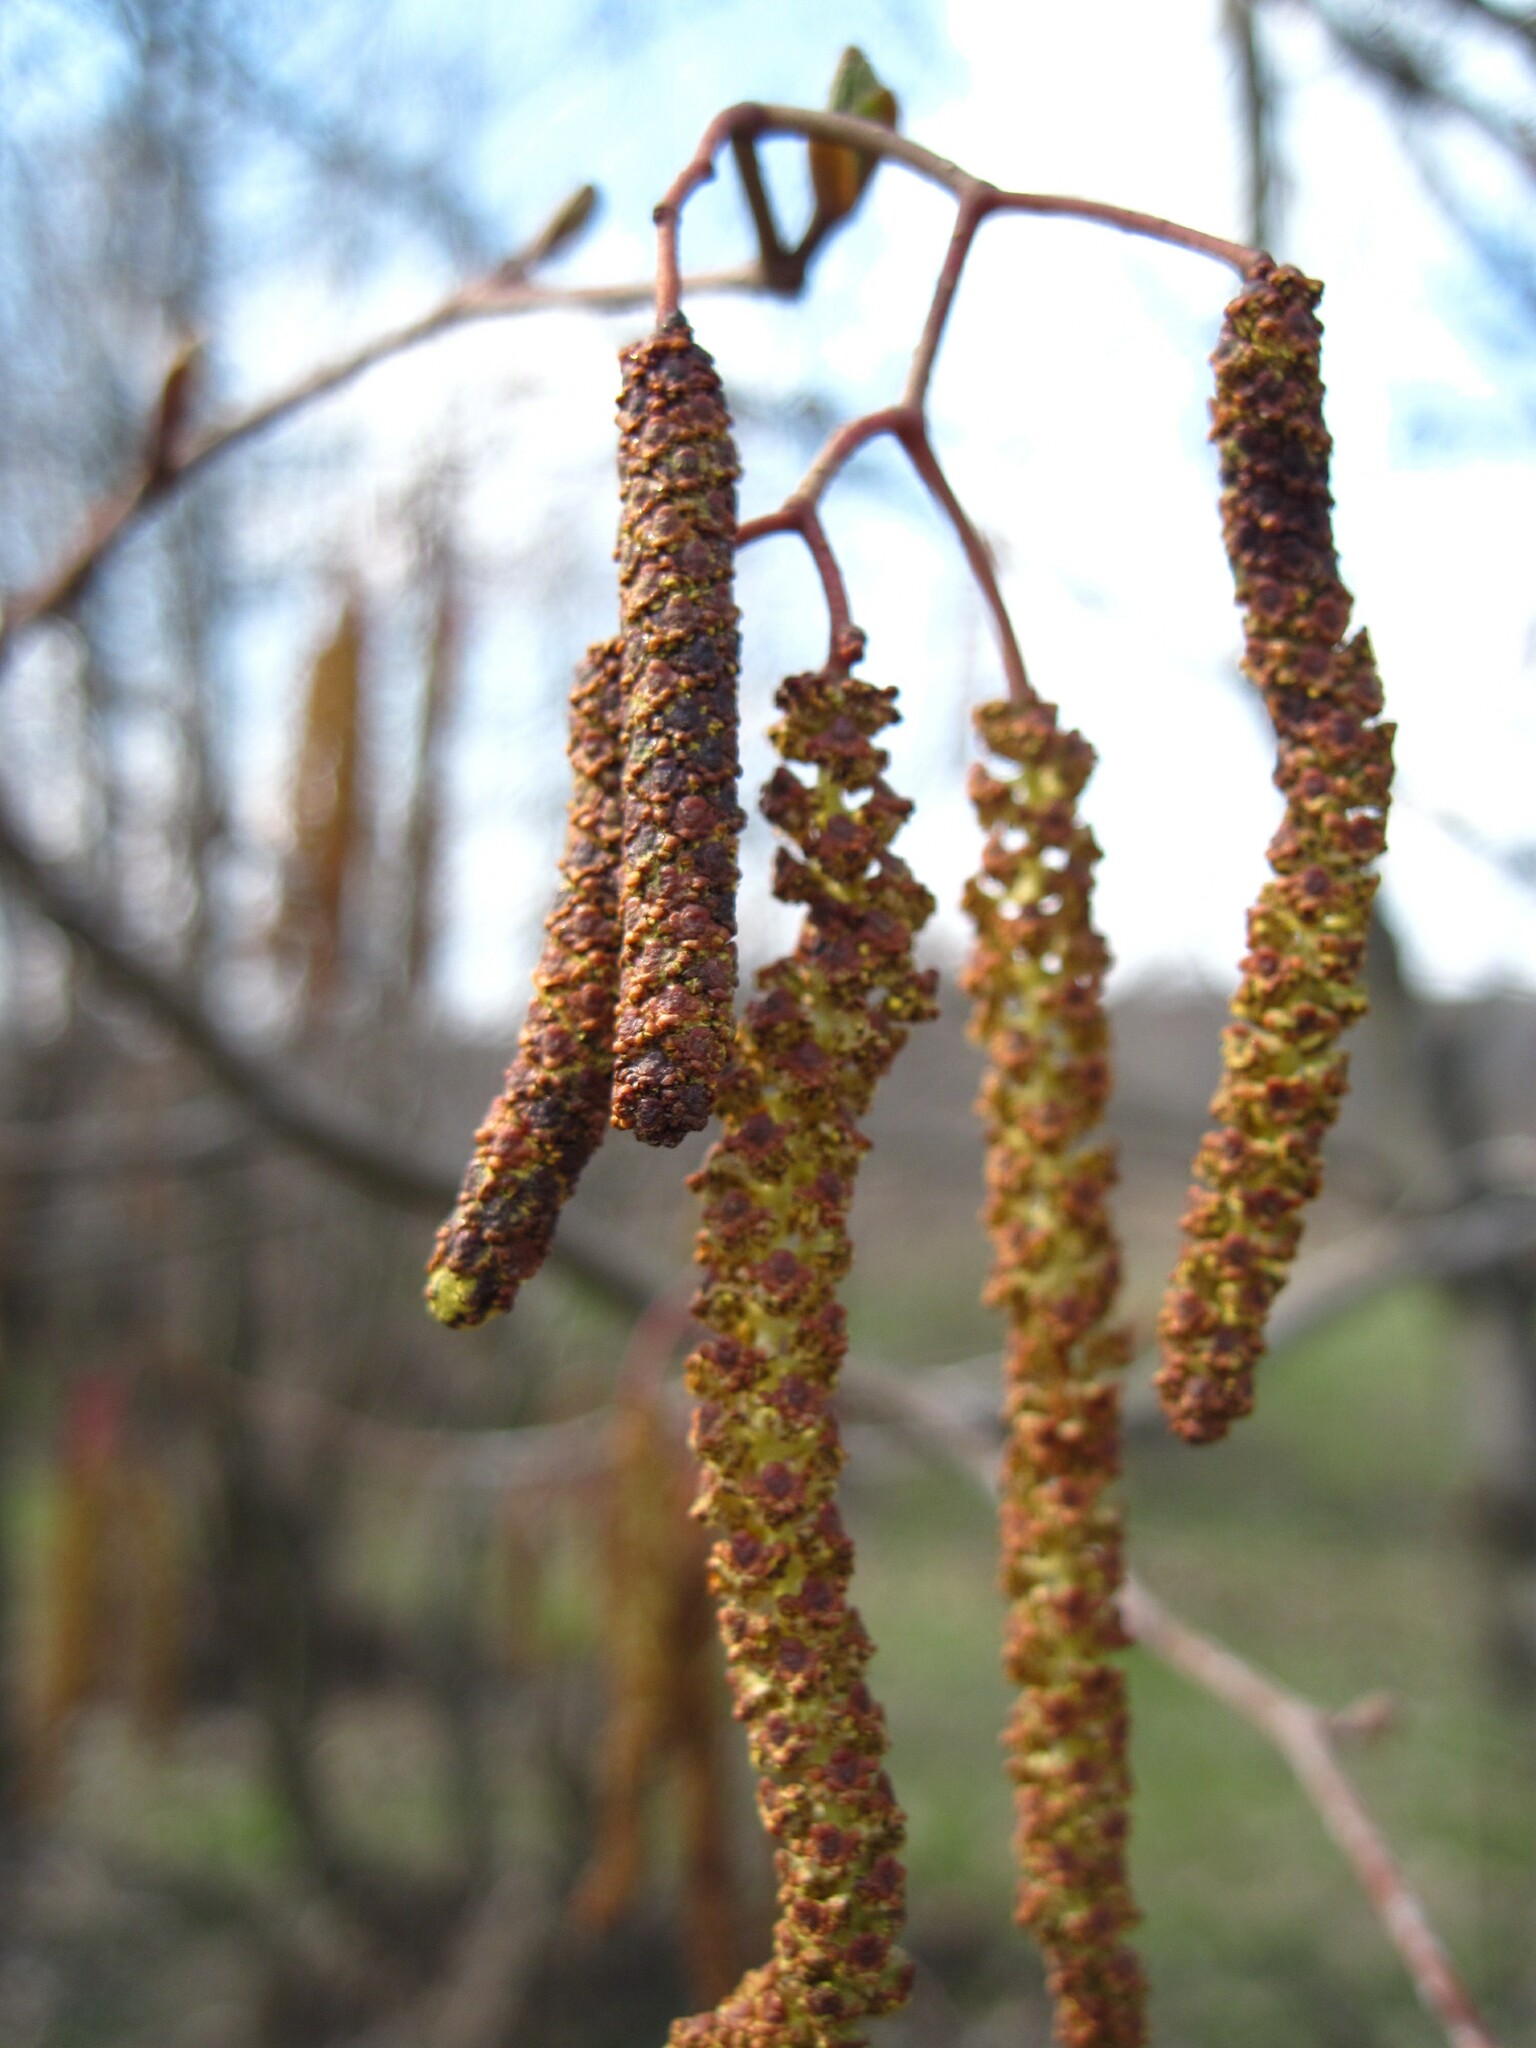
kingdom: Plantae
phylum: Tracheophyta
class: Magnoliopsida
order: Fagales
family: Betulaceae
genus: Alnus
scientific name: Alnus glutinosa
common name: Black alder
